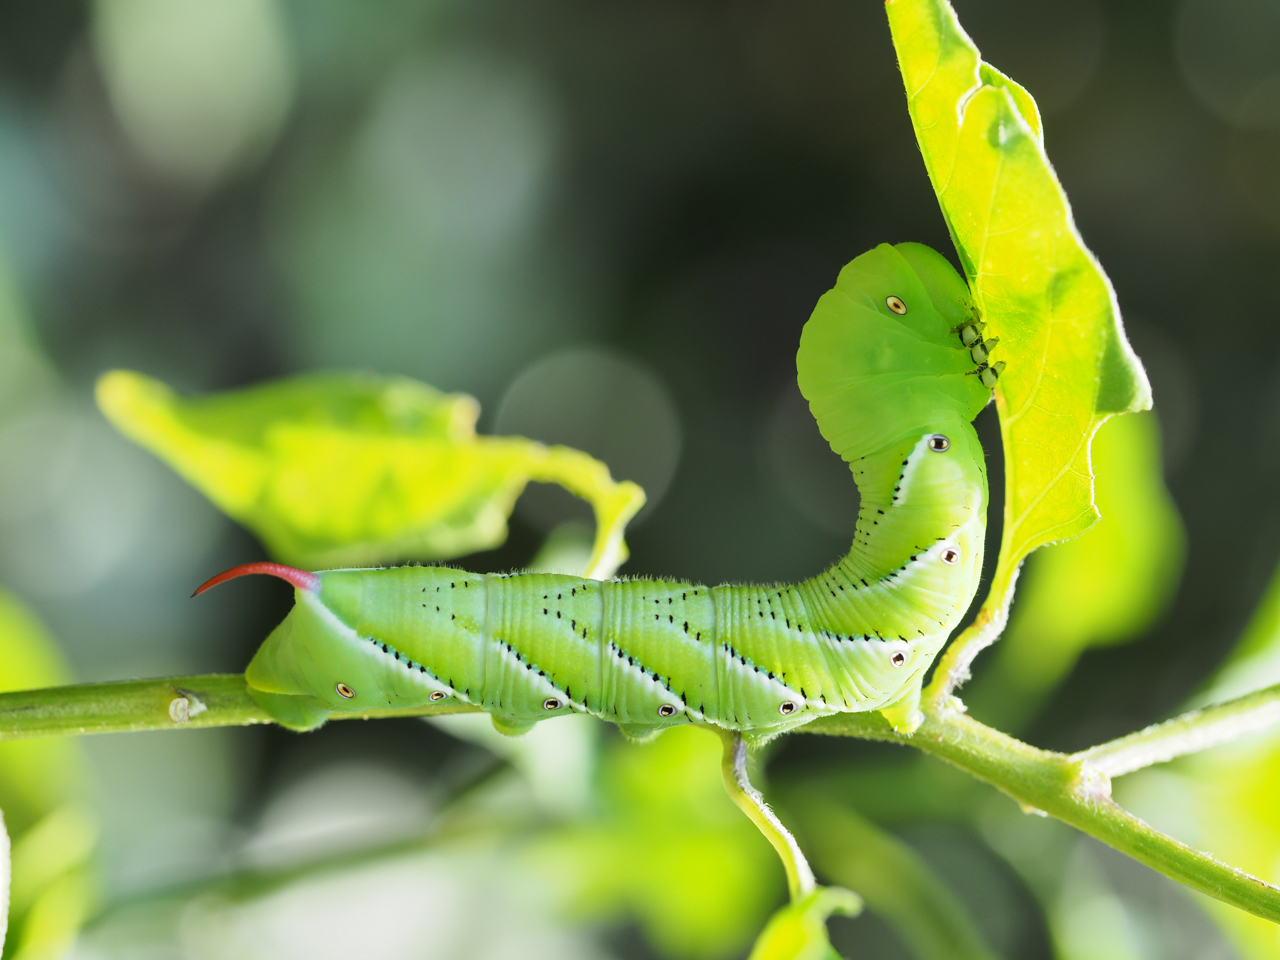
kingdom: Animalia
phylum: Arthropoda
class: Insecta
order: Lepidoptera
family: Sphingidae
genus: Manduca
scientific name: Manduca sexta
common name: Carolina sphinx
